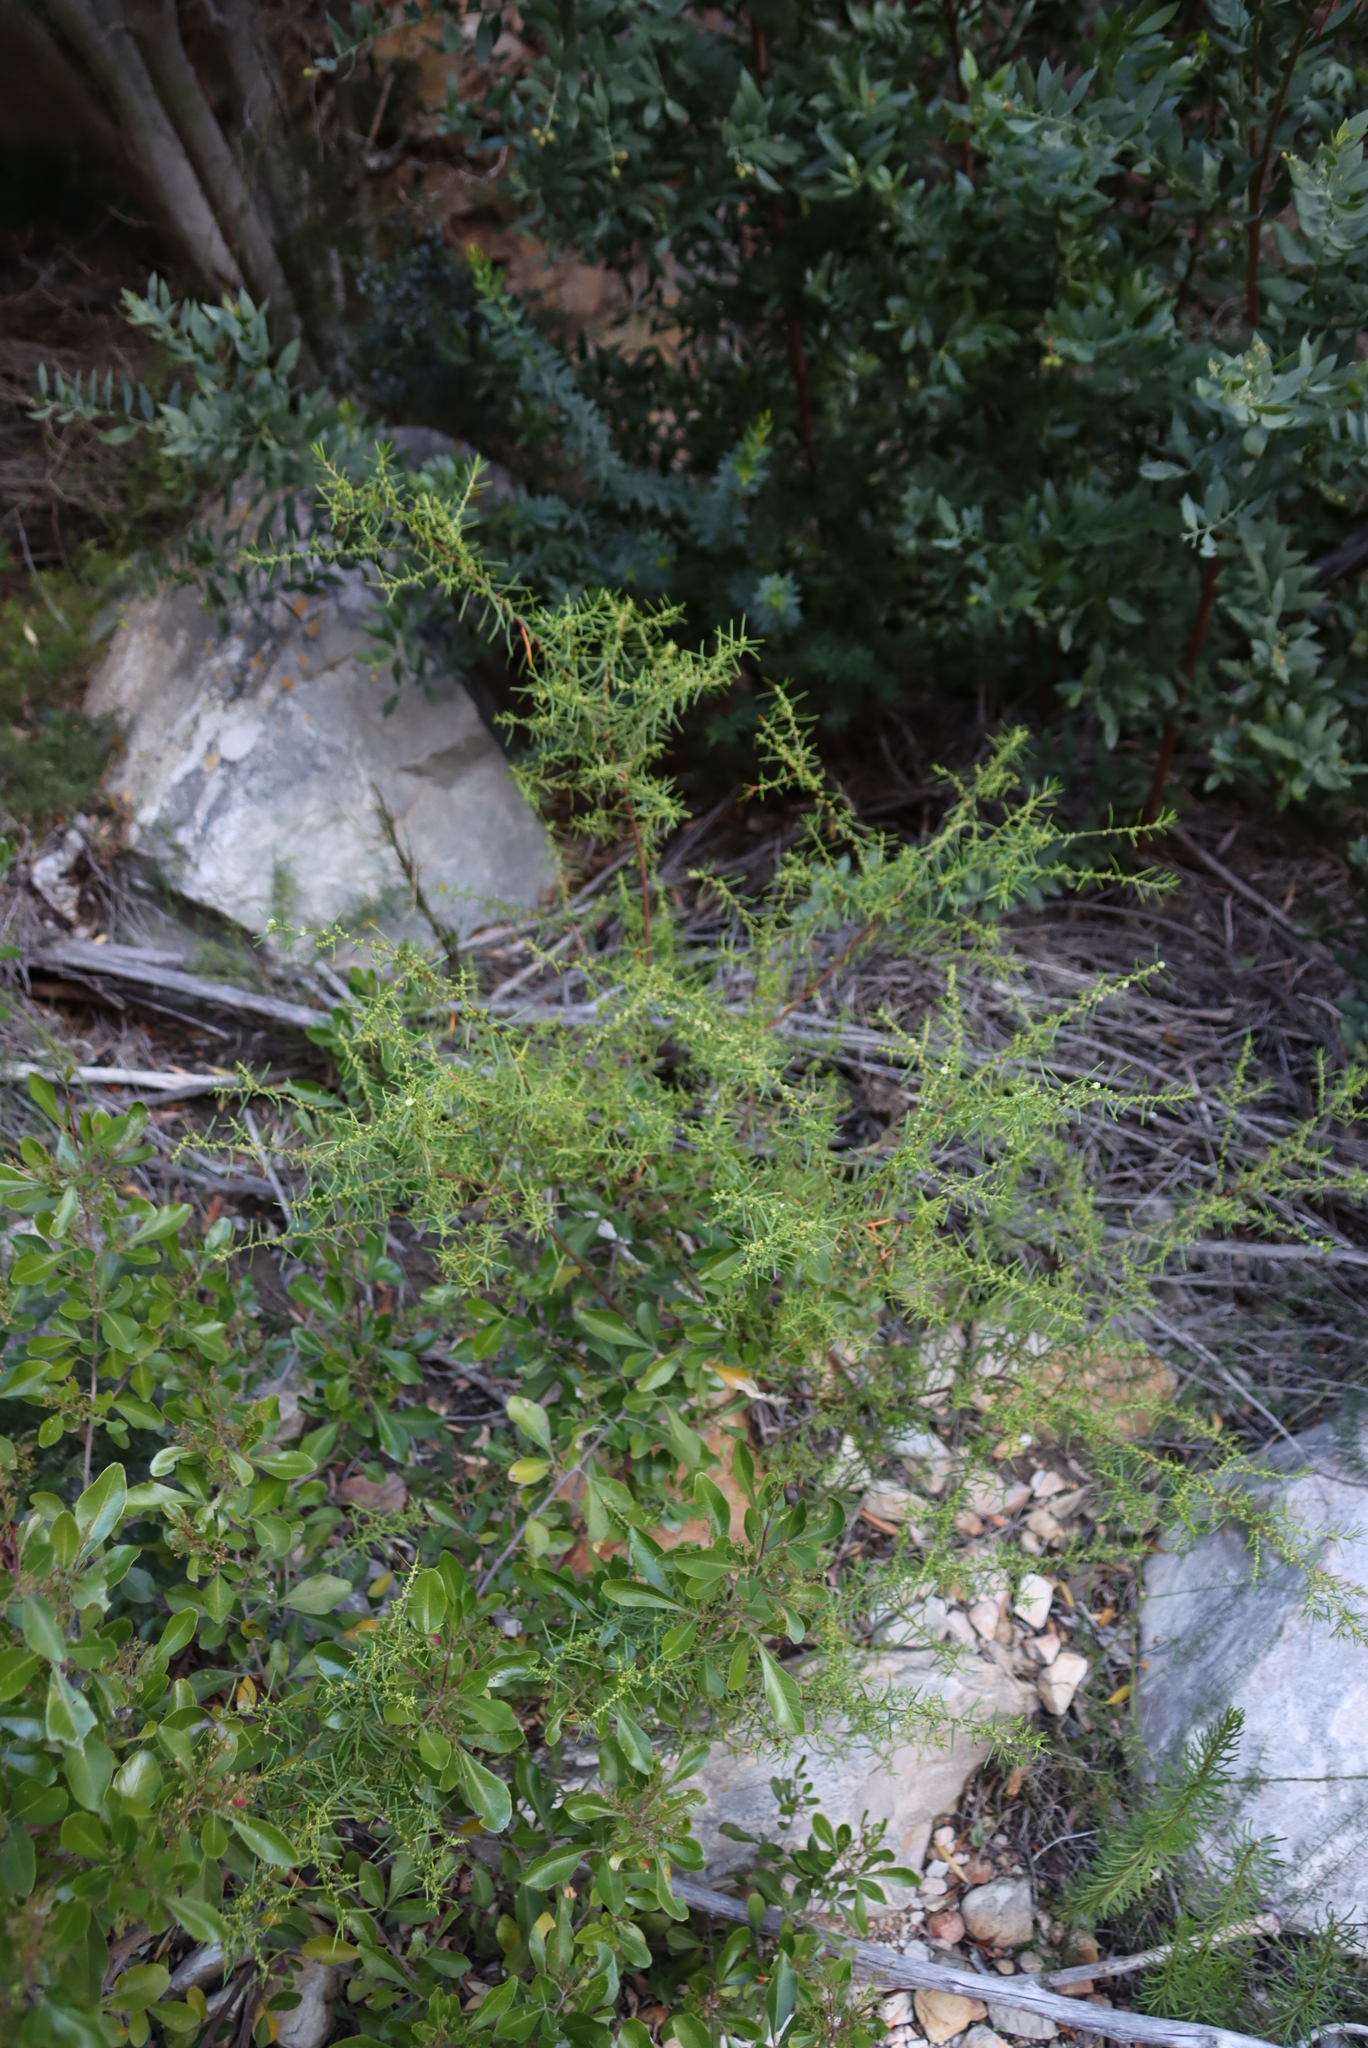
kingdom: Plantae
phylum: Tracheophyta
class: Magnoliopsida
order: Malpighiales
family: Peraceae
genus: Clutia
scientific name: Clutia ericoides
